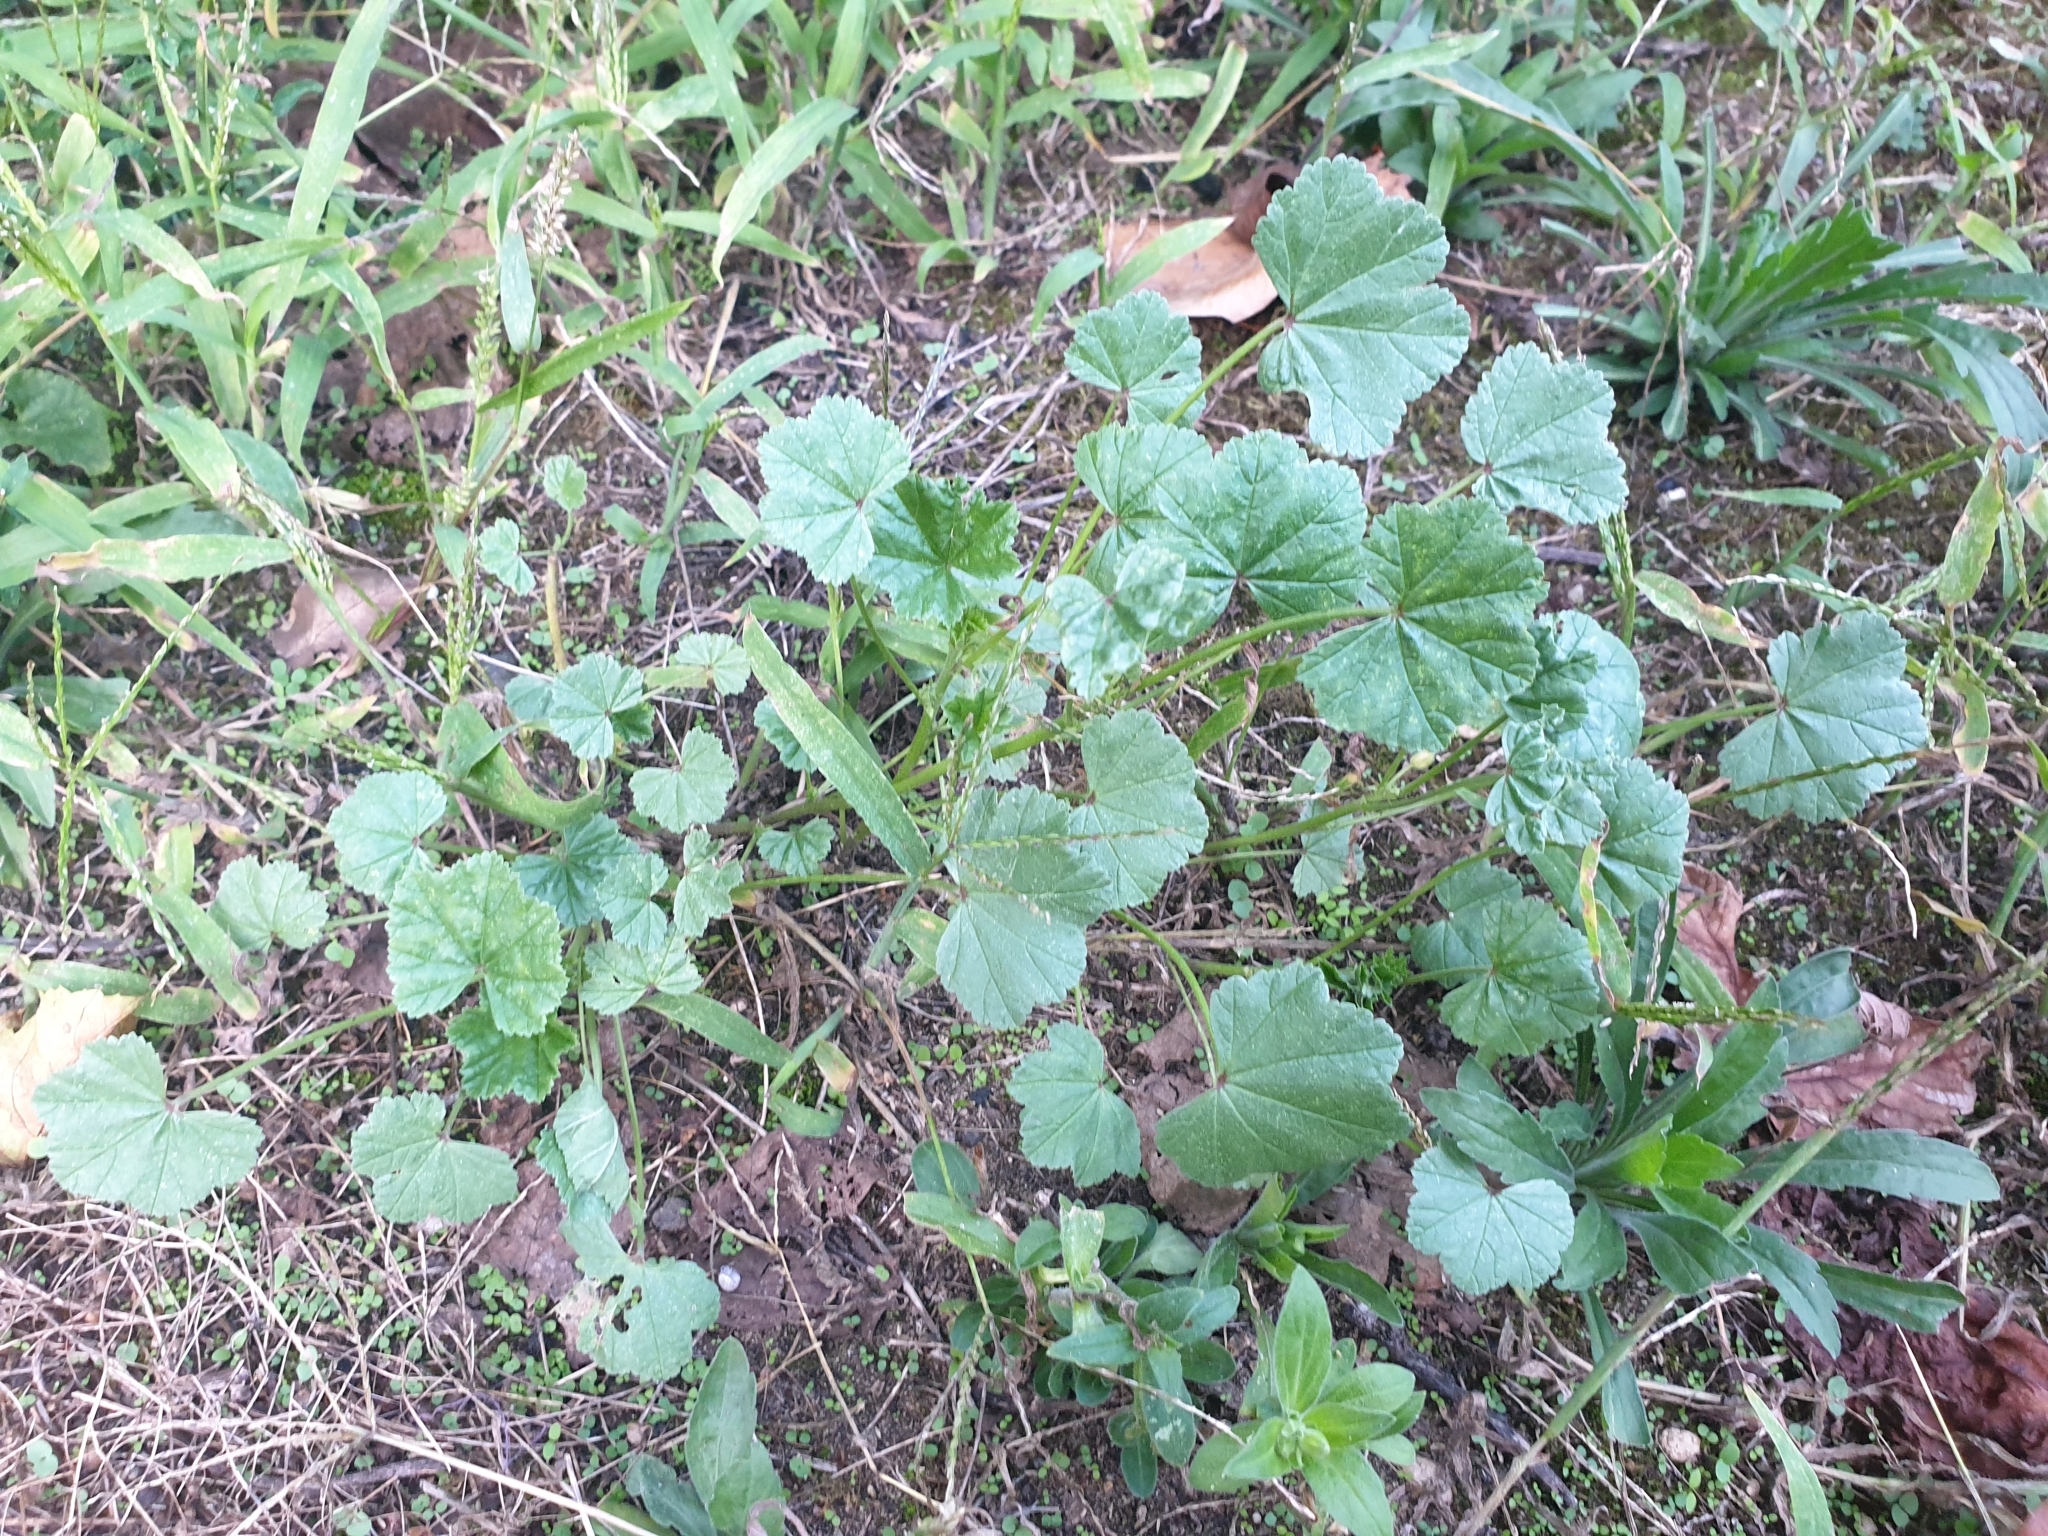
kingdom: Plantae
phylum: Tracheophyta
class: Magnoliopsida
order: Malvales
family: Malvaceae
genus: Malva
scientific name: Malva neglecta
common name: Common mallow
